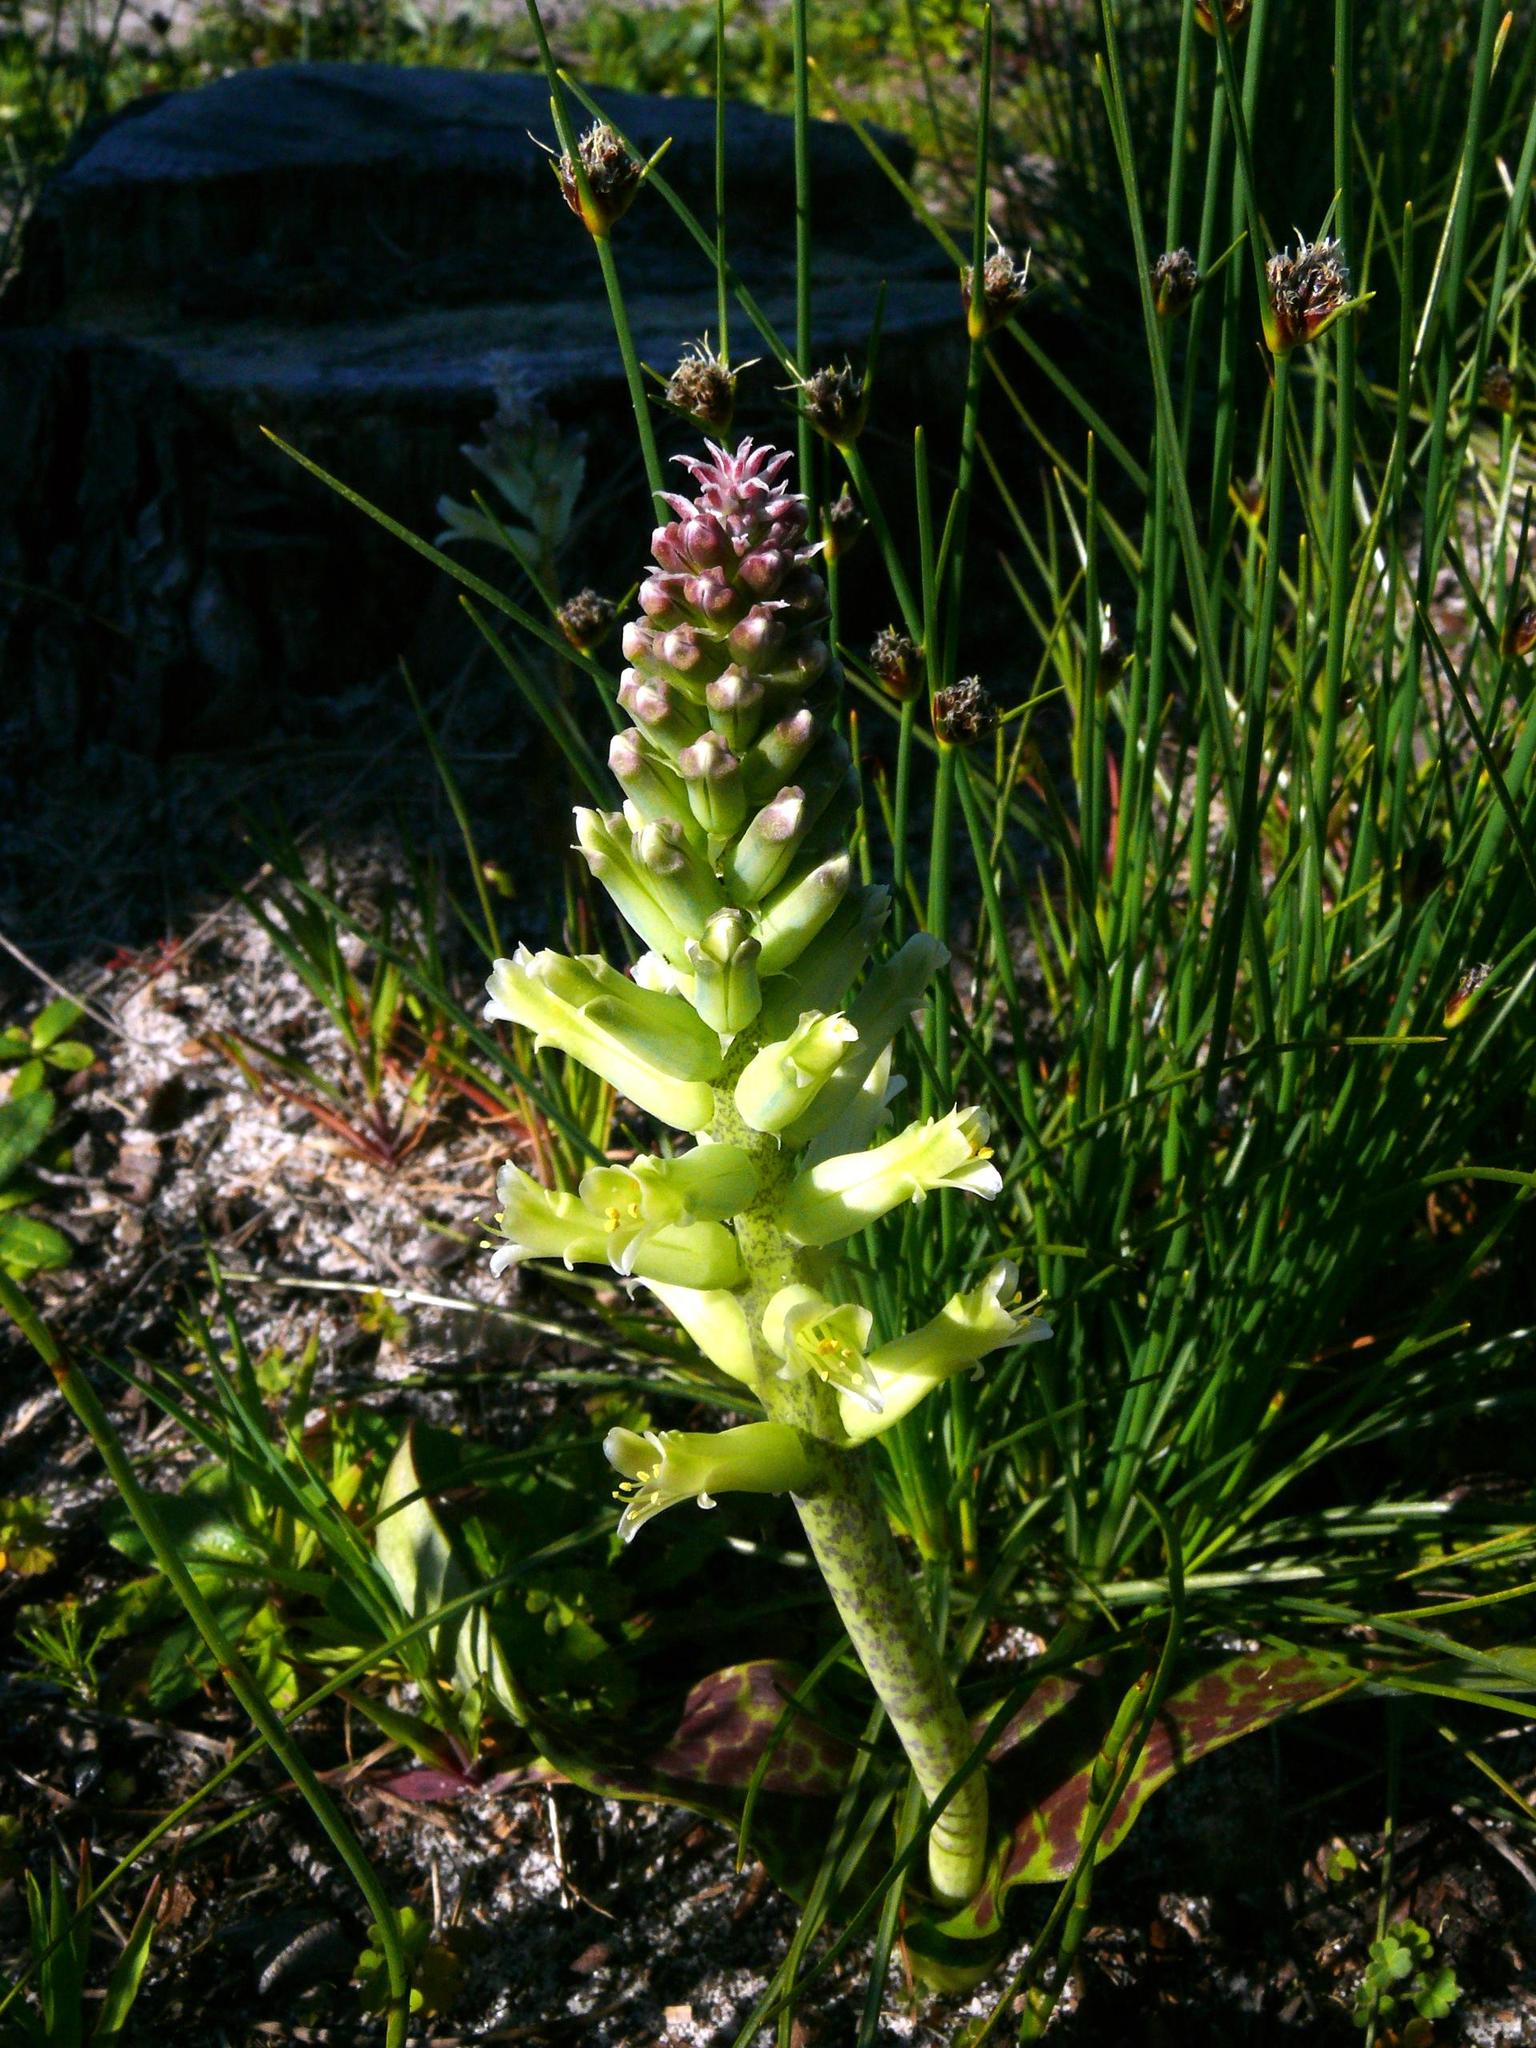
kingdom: Plantae
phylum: Tracheophyta
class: Liliopsida
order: Asparagales
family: Asparagaceae
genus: Lachenalia
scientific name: Lachenalia orchioides
